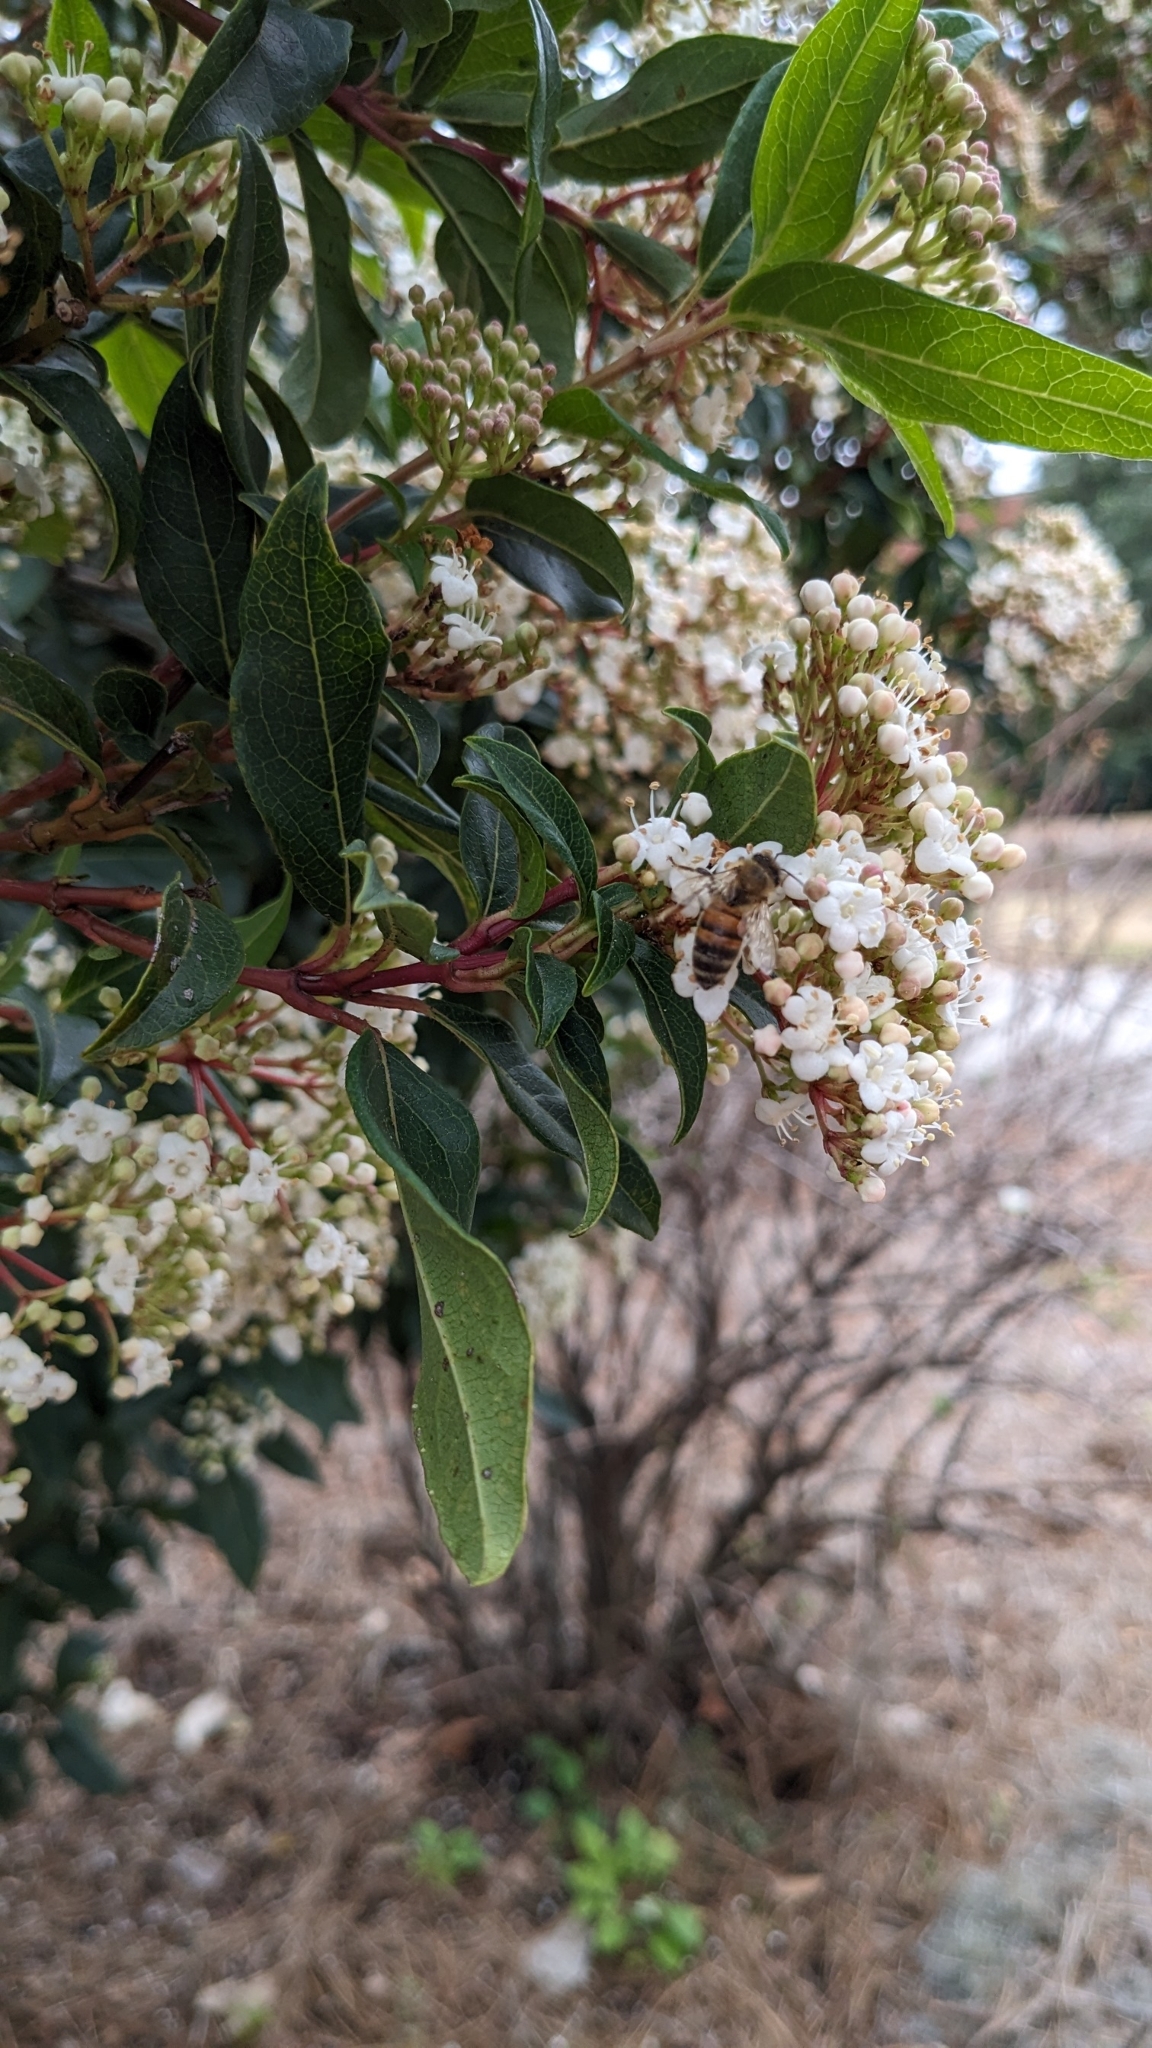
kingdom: Animalia
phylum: Arthropoda
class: Insecta
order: Hymenoptera
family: Apidae
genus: Apis
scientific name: Apis mellifera
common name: Honey bee
